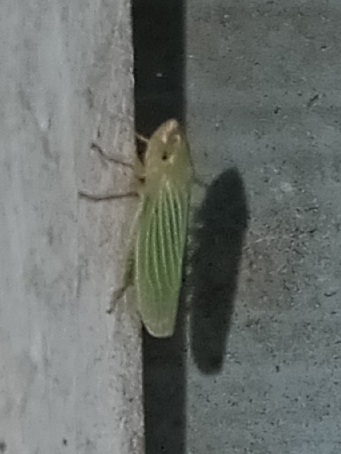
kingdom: Animalia
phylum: Arthropoda
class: Insecta
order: Hemiptera
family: Cicadellidae
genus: Xyphon
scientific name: Xyphon flaviceps
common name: Yellowheaded leafhopper
